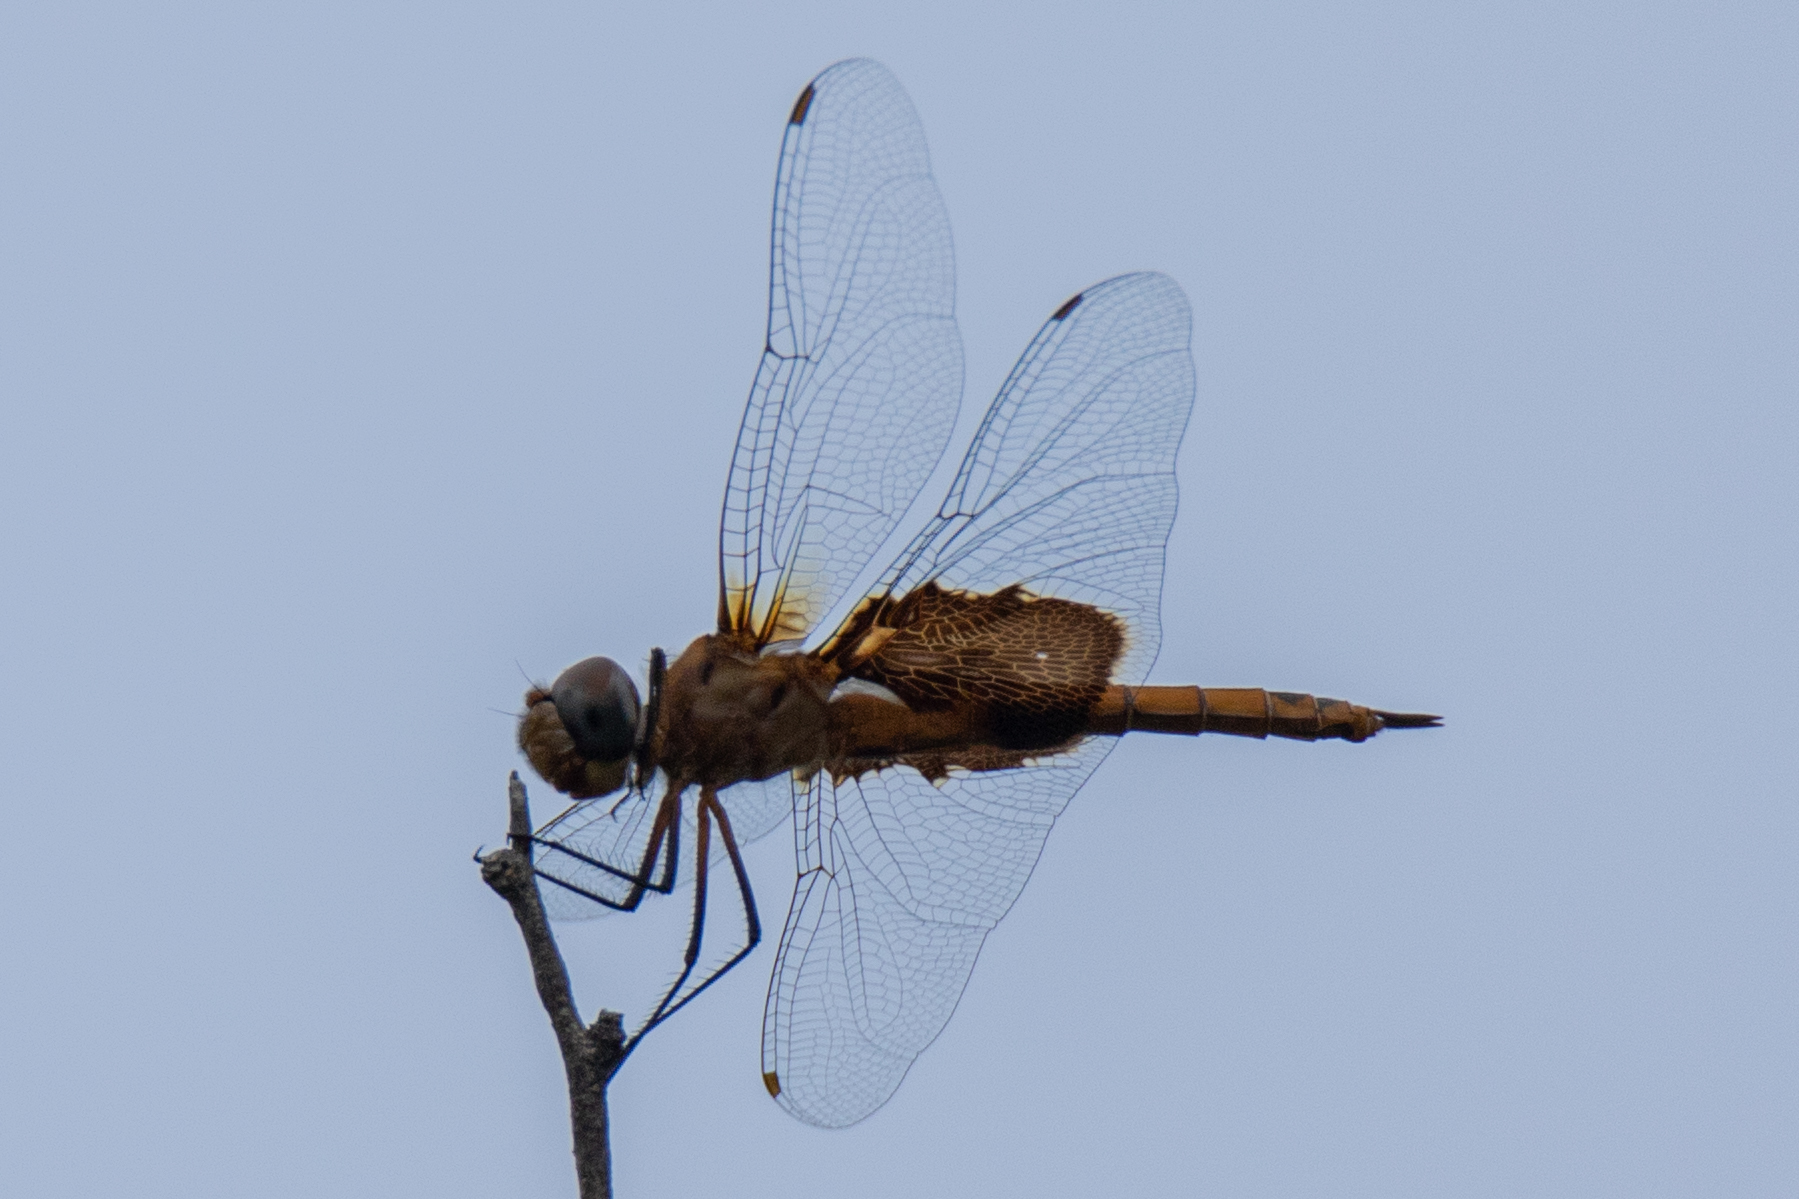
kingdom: Animalia
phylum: Arthropoda
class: Insecta
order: Odonata
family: Libellulidae
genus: Tramea
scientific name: Tramea onusta
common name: Red saddlebags
